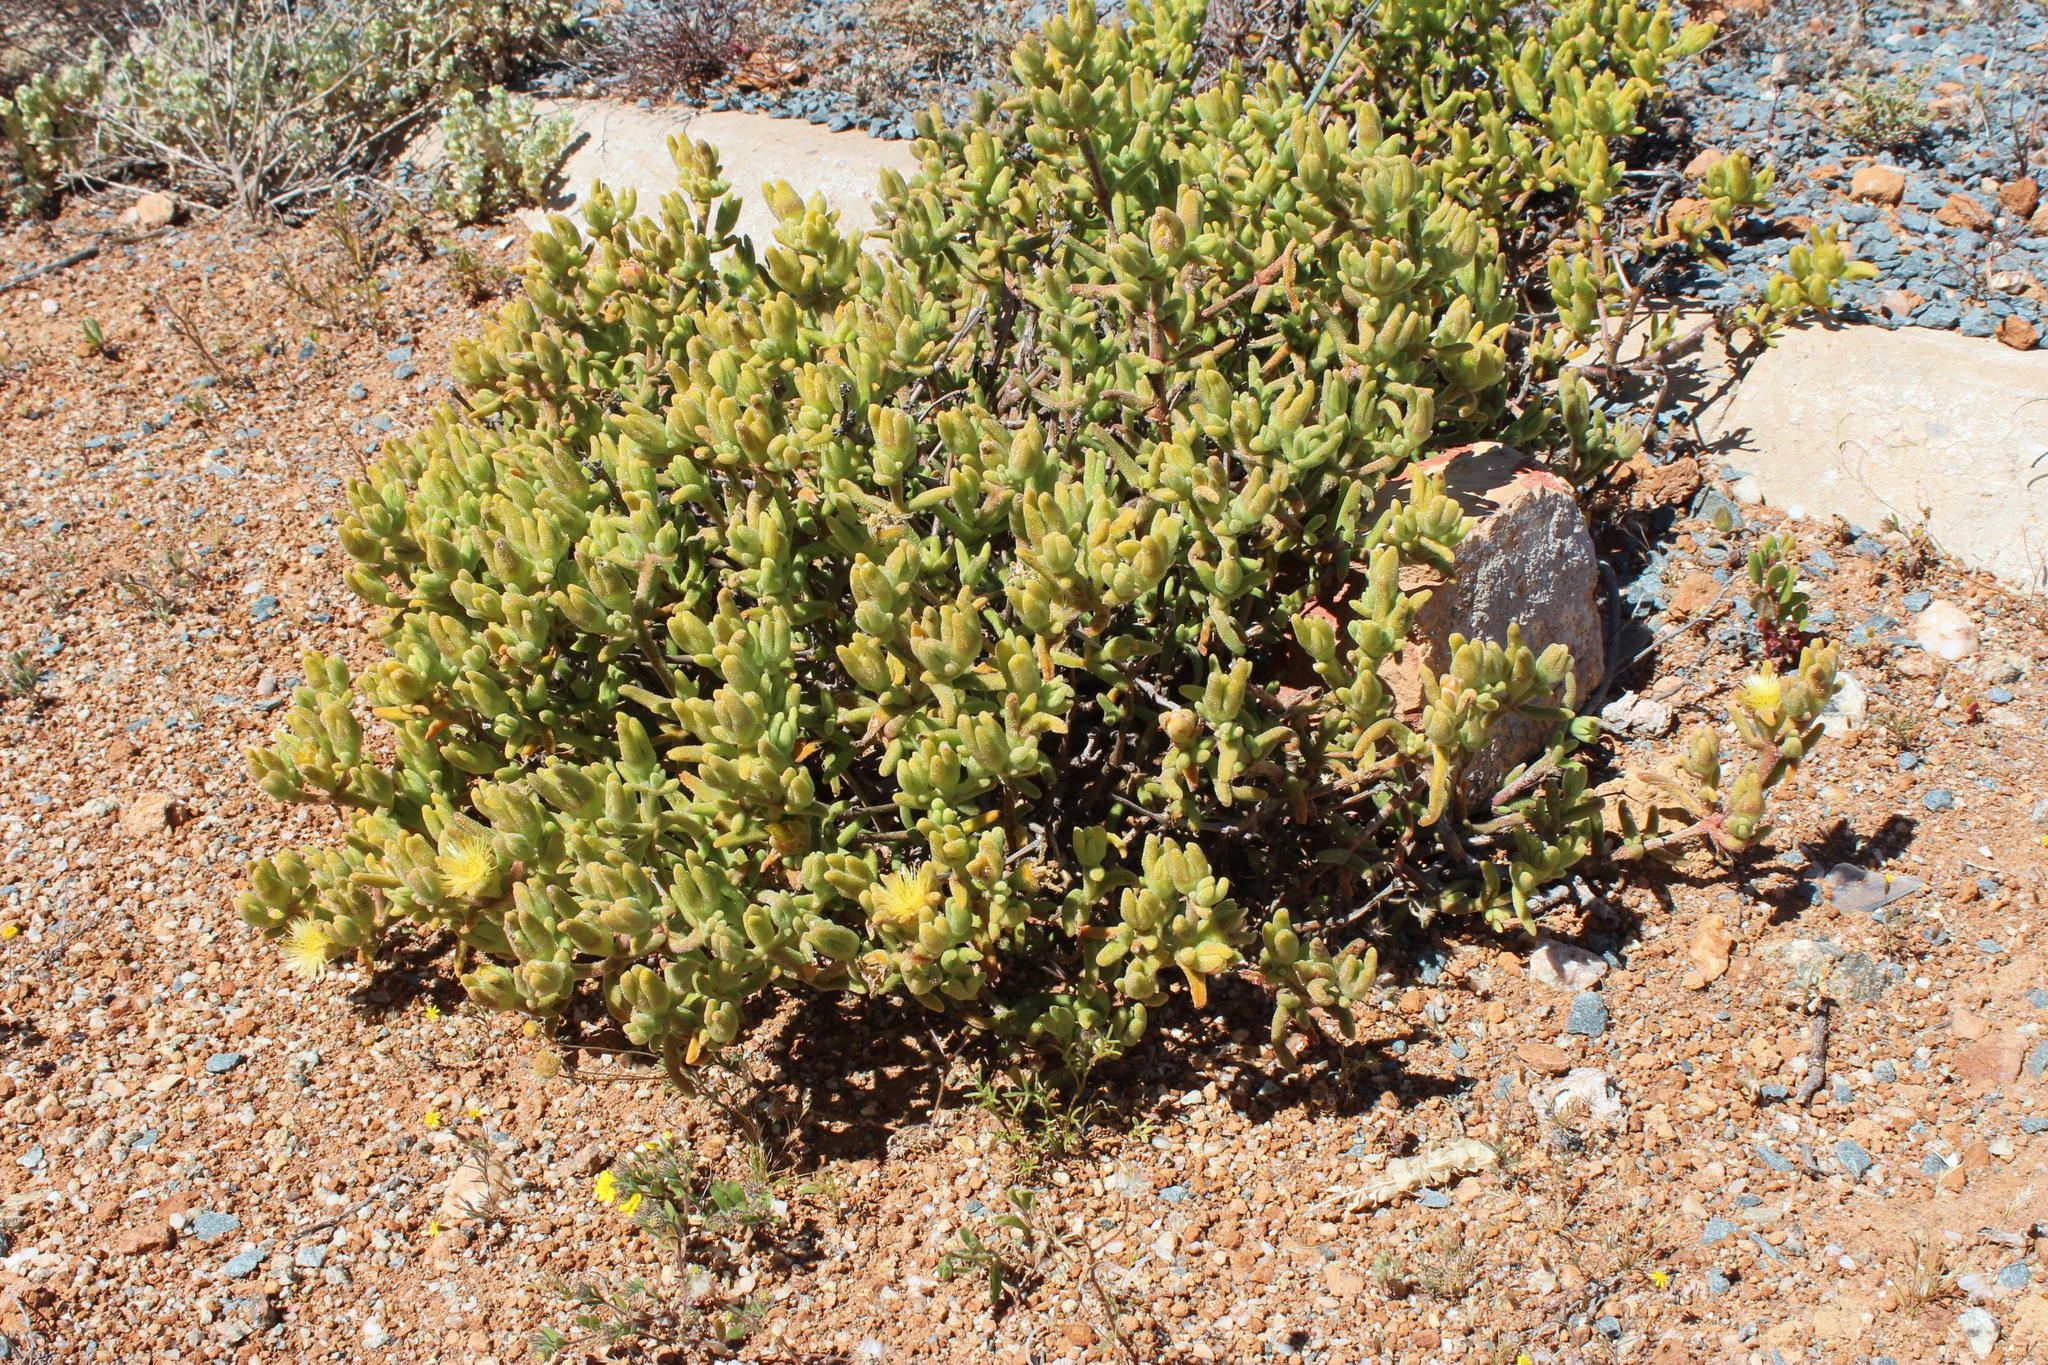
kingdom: Plantae
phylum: Tracheophyta
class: Magnoliopsida
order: Caryophyllales
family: Aizoaceae
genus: Mesembryanthemum
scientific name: Mesembryanthemum nitidum
